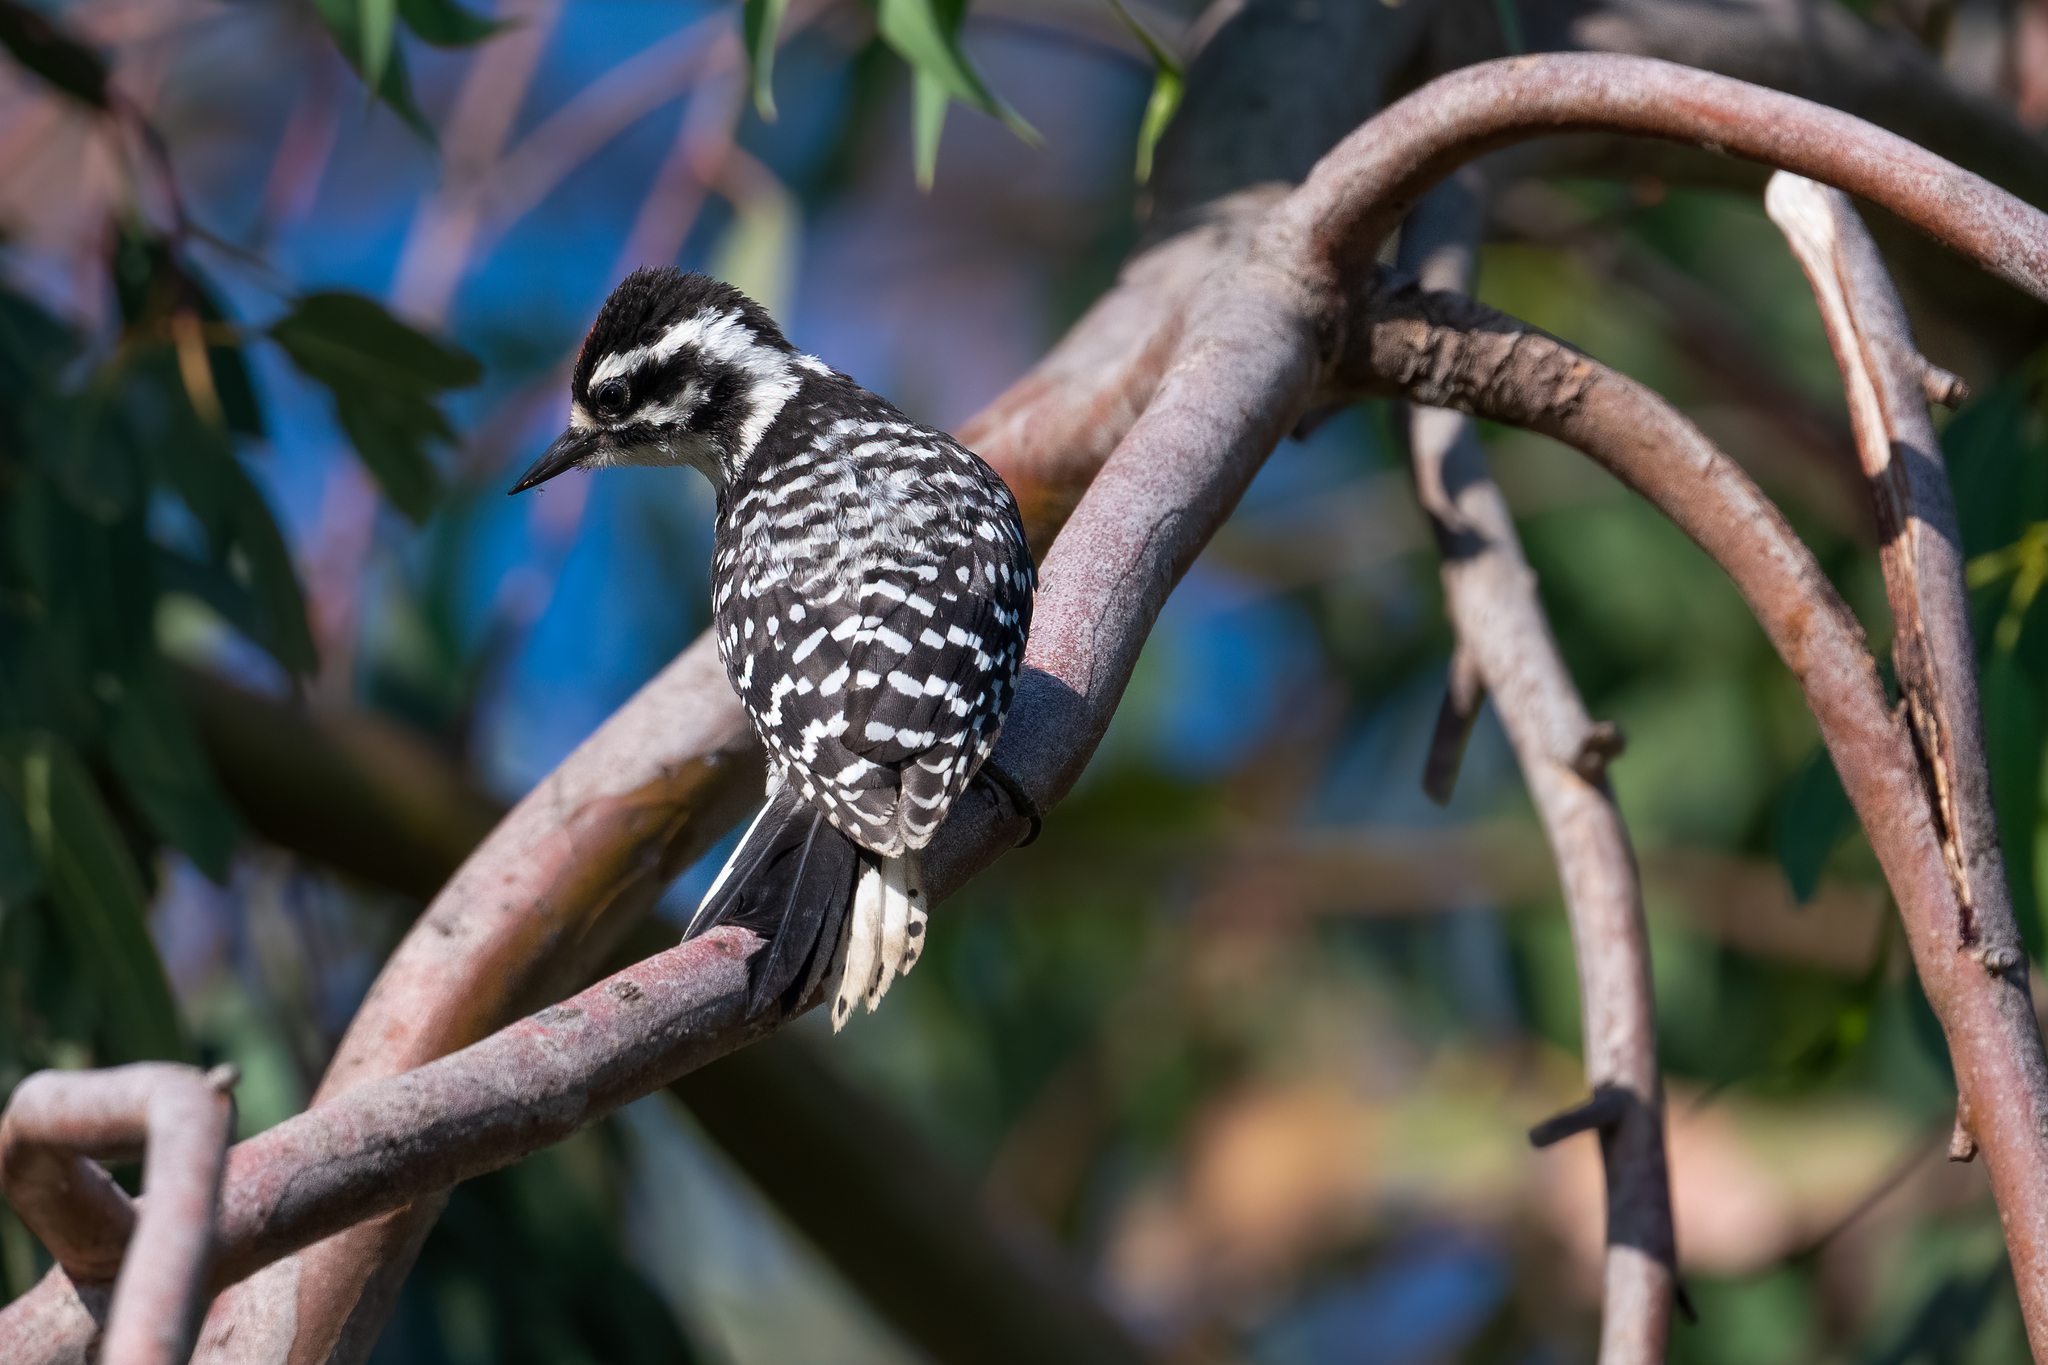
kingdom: Animalia
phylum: Chordata
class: Aves
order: Piciformes
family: Picidae
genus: Dryobates
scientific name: Dryobates nuttallii
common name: Nuttall's woodpecker
